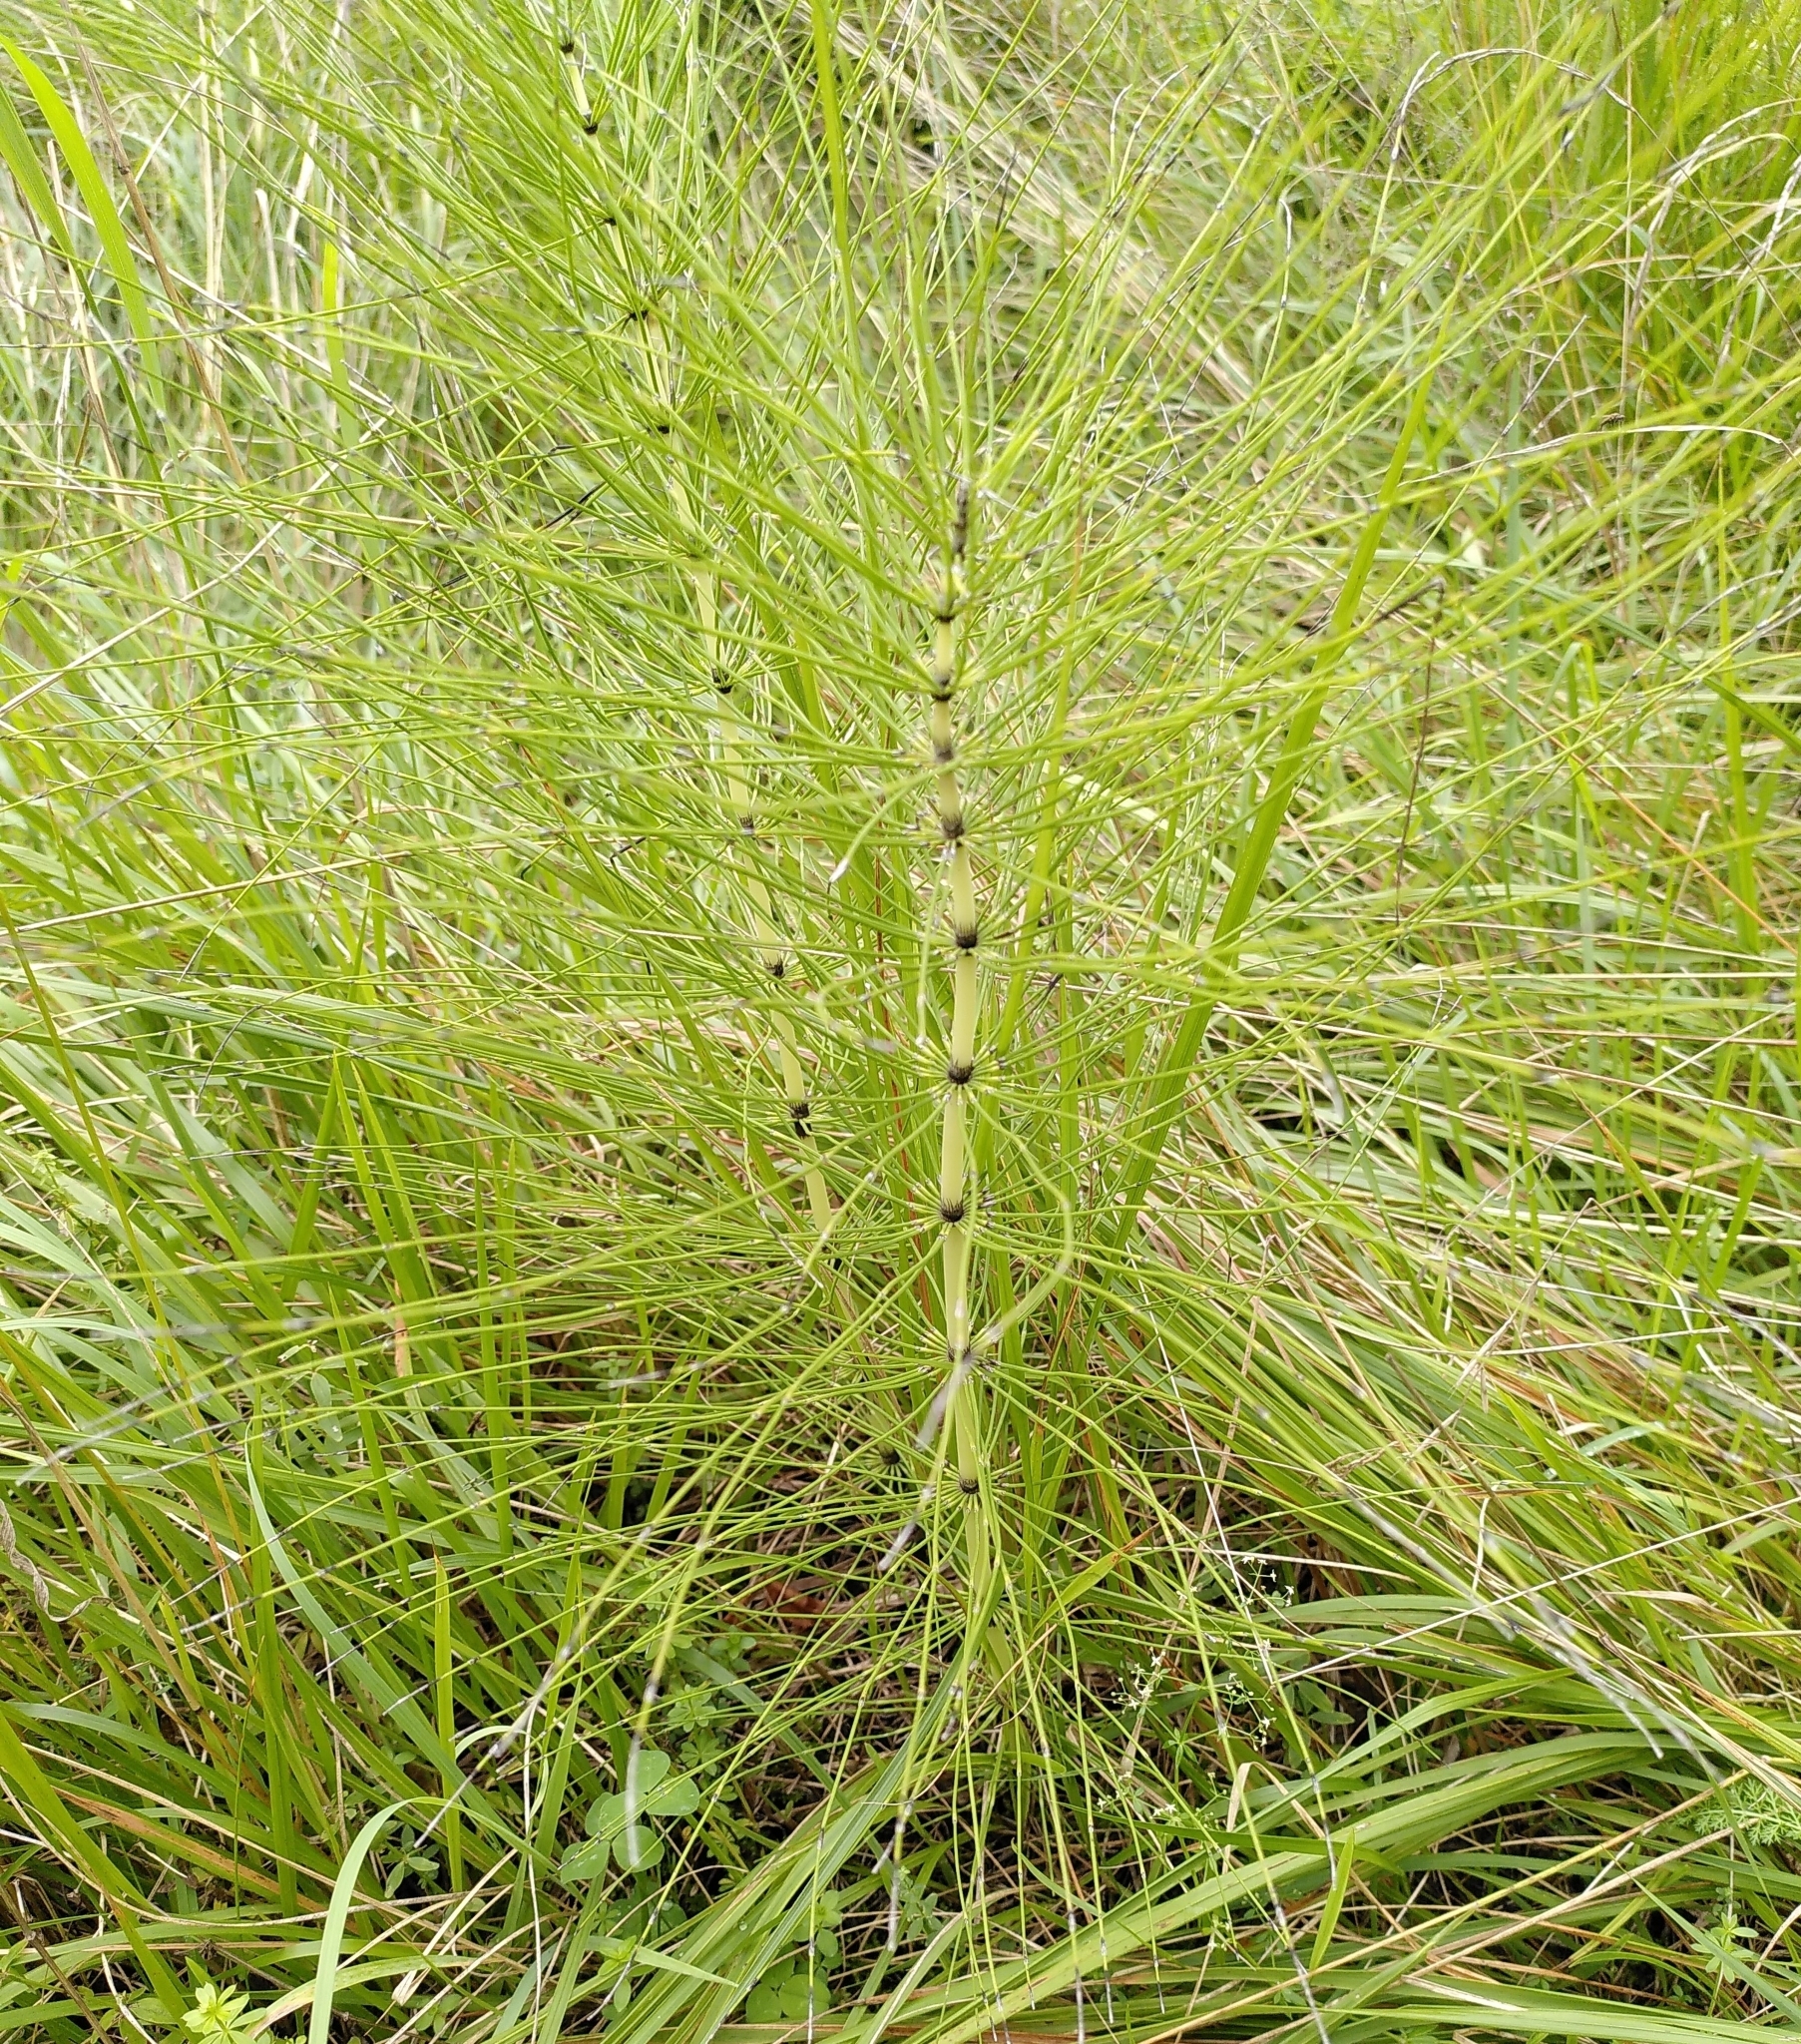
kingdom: Plantae
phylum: Tracheophyta
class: Polypodiopsida
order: Equisetales
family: Equisetaceae
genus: Equisetum
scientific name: Equisetum telmateia
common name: Great horsetail
